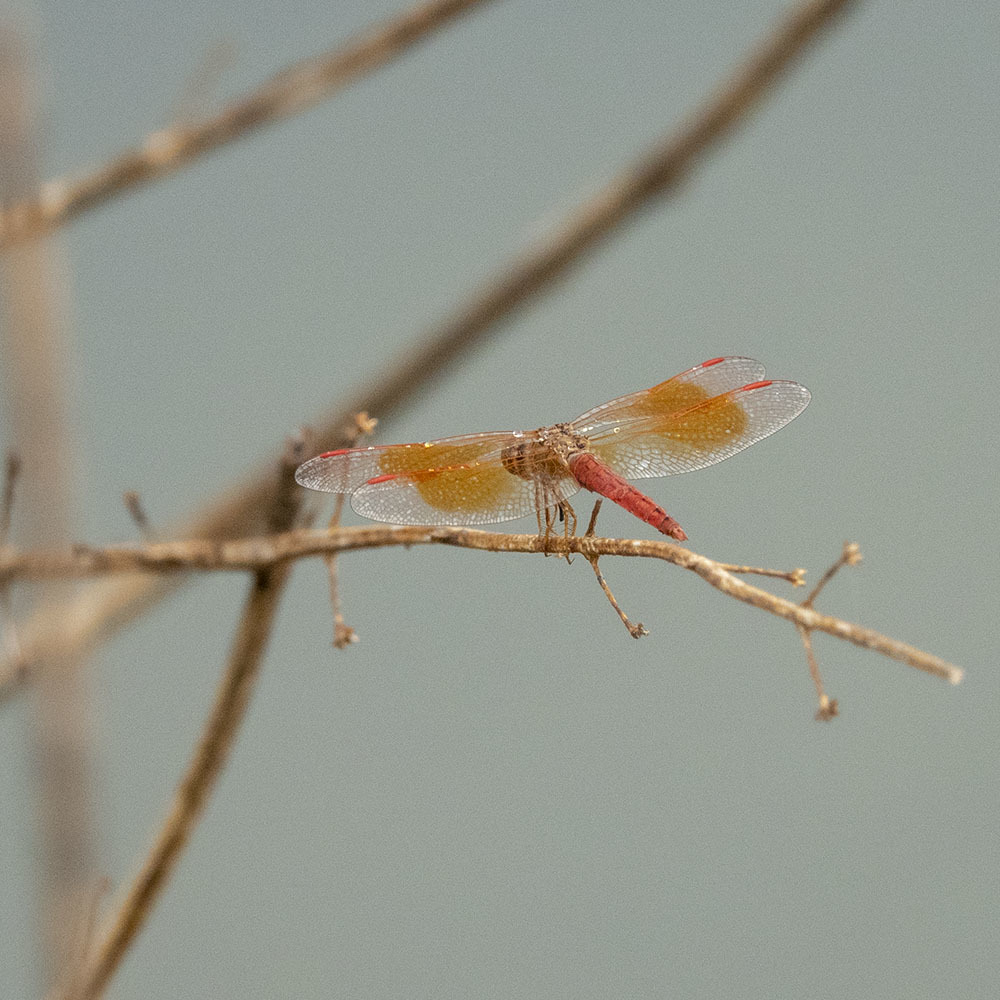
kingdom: Animalia
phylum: Arthropoda
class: Insecta
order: Odonata
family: Libellulidae
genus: Brachythemis
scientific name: Brachythemis contaminata
